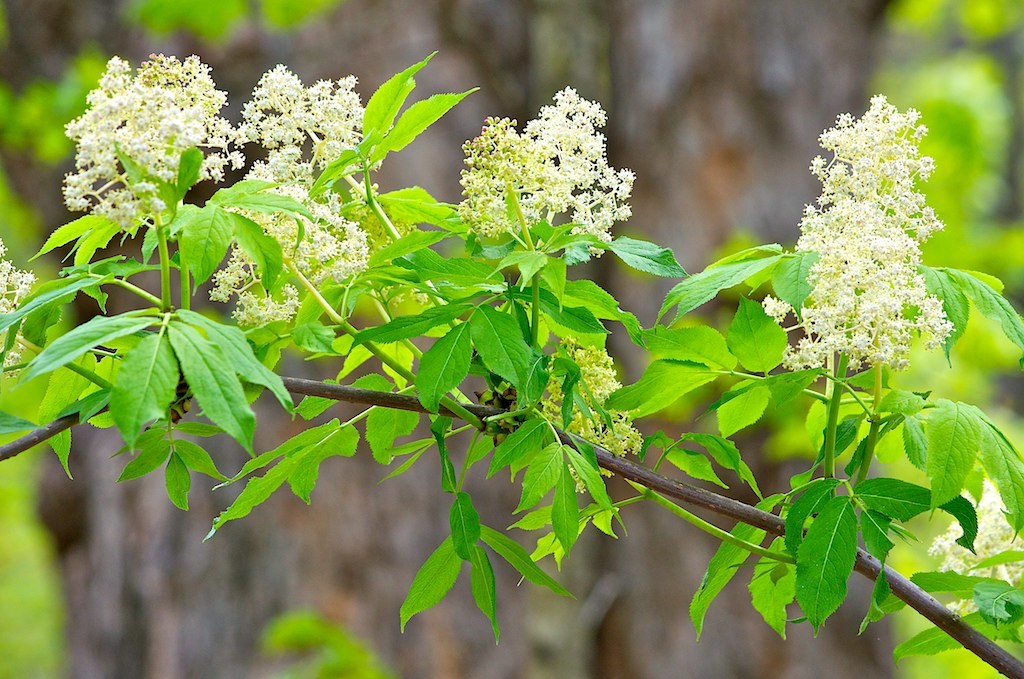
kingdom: Plantae
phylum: Tracheophyta
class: Magnoliopsida
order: Dipsacales
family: Viburnaceae
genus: Sambucus
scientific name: Sambucus racemosa
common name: Red-berried elder
